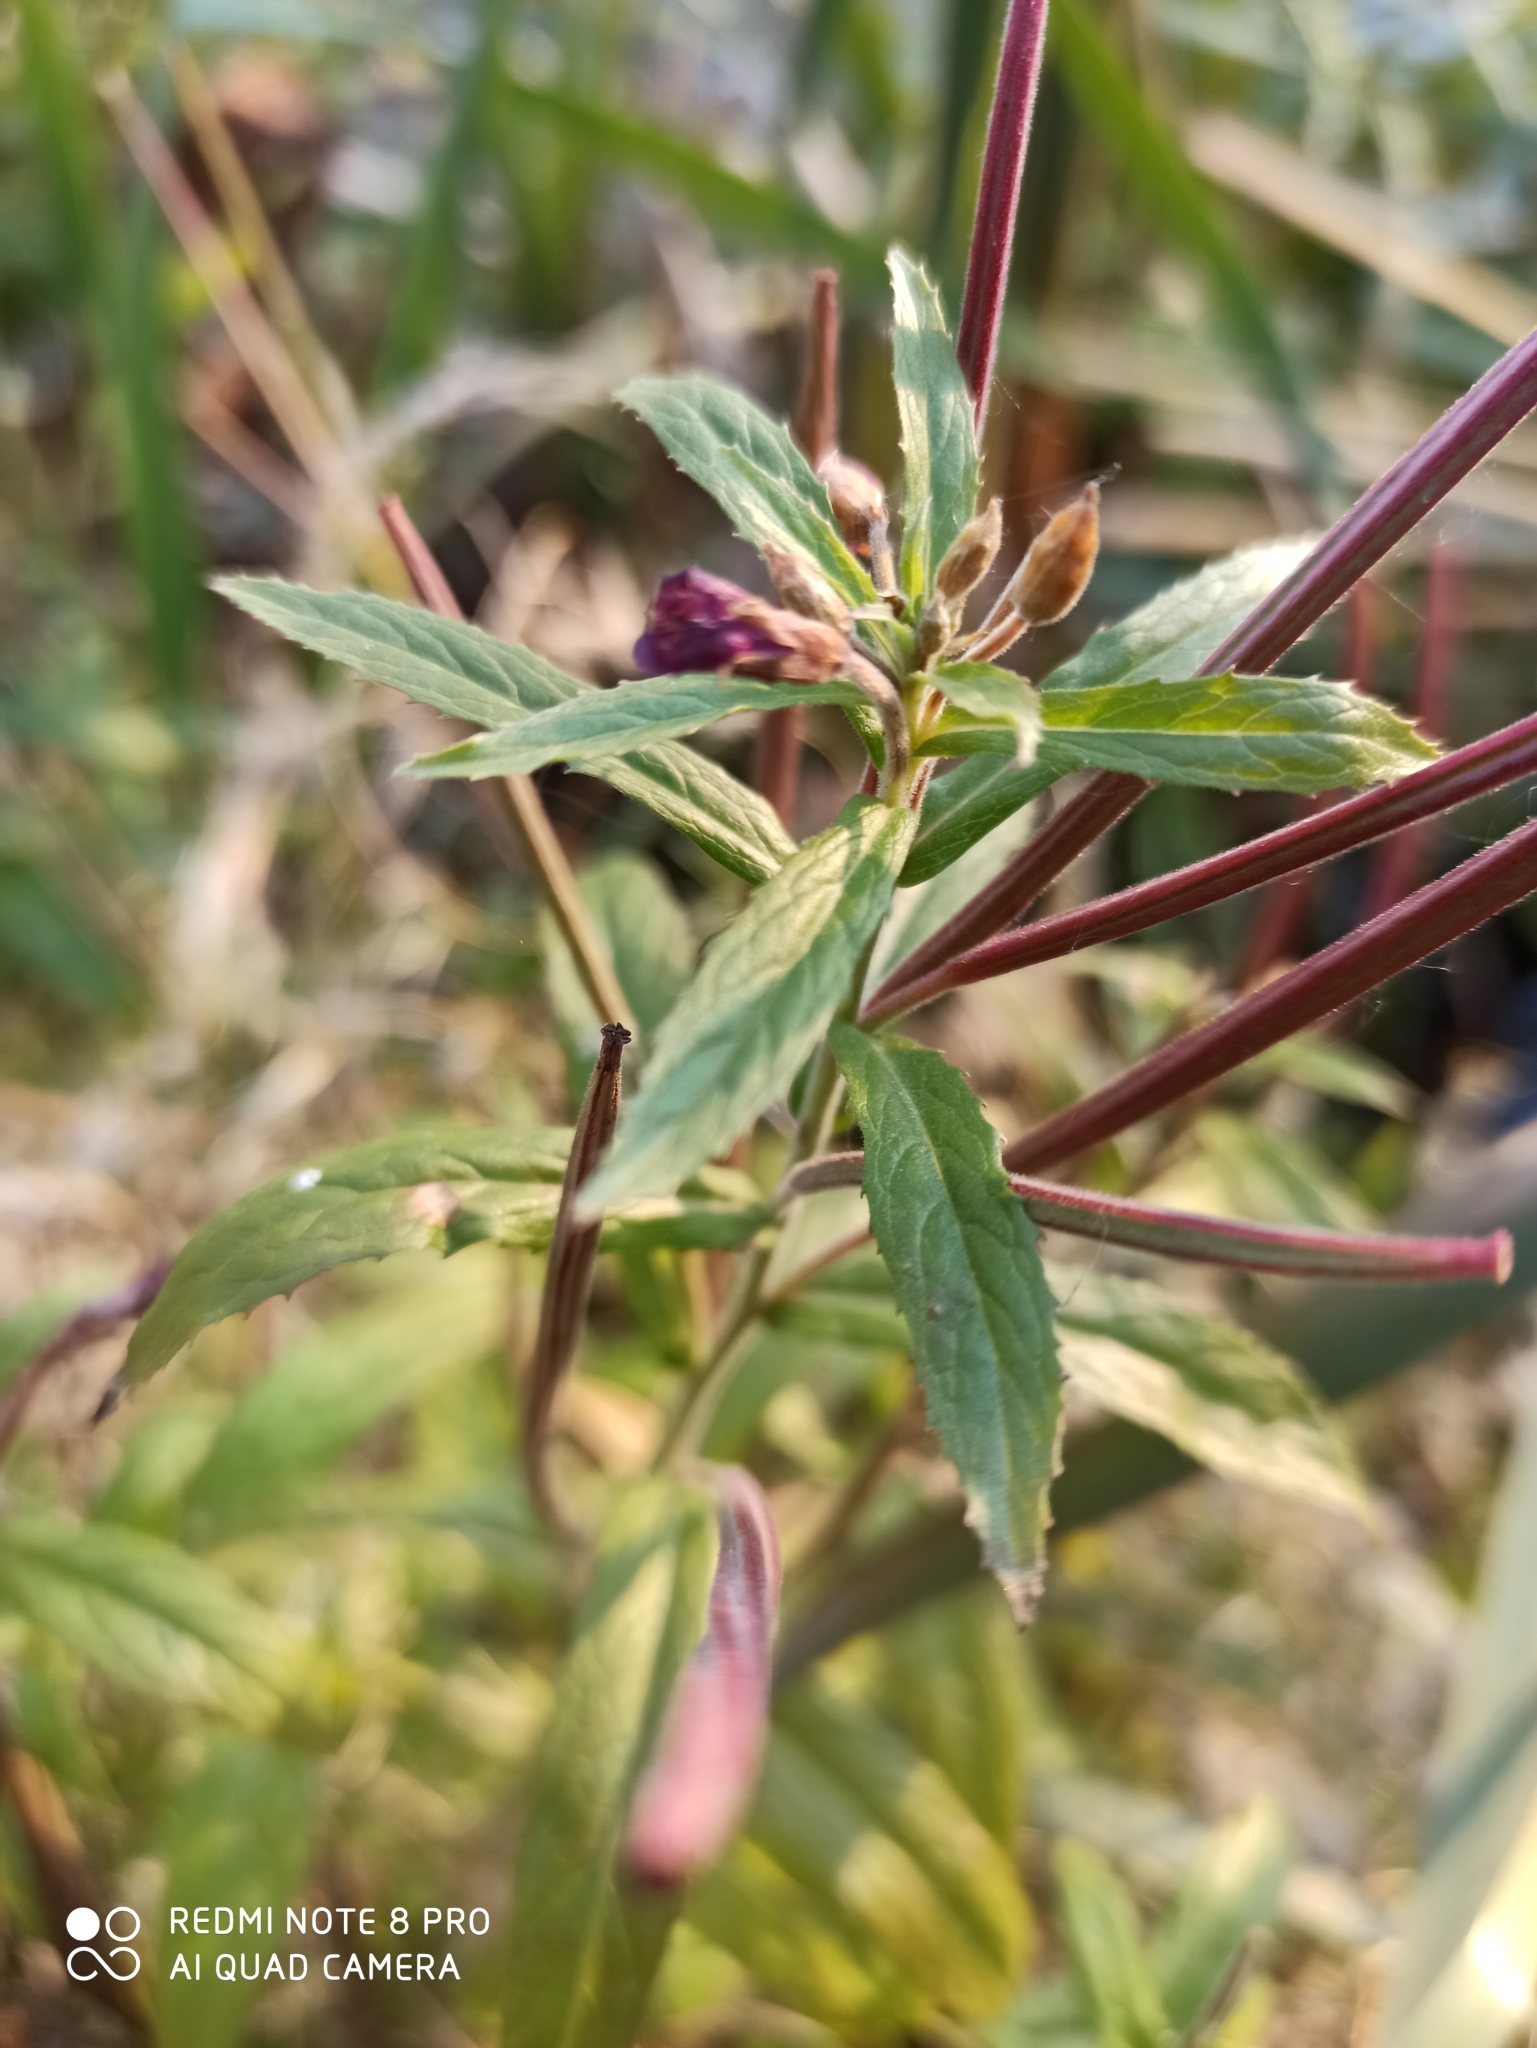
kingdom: Plantae
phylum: Tracheophyta
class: Magnoliopsida
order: Myrtales
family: Onagraceae
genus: Epilobium
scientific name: Epilobium hirsutum
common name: Great willowherb
